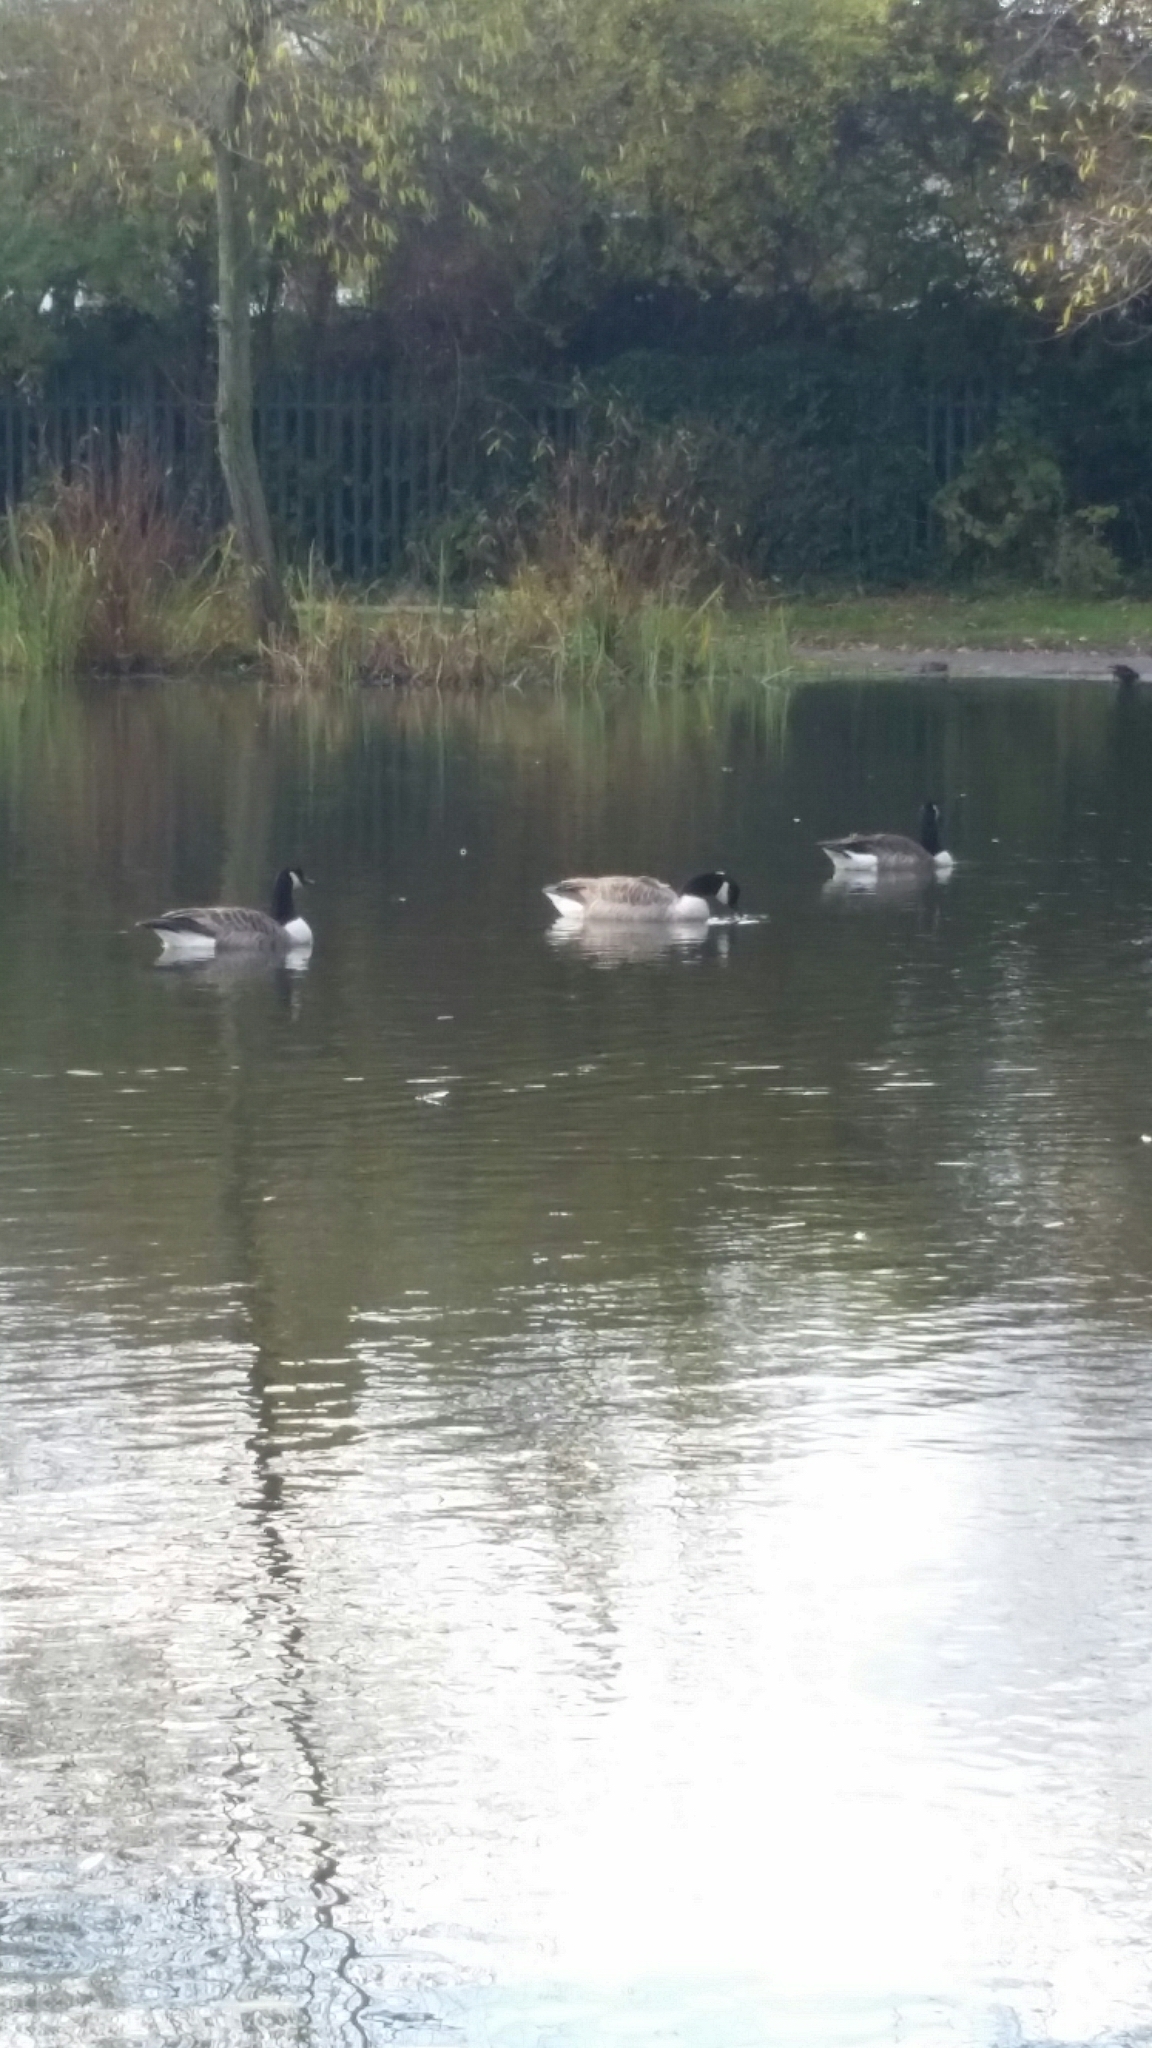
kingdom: Animalia
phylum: Chordata
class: Aves
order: Anseriformes
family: Anatidae
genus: Branta
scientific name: Branta canadensis
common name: Canada goose
